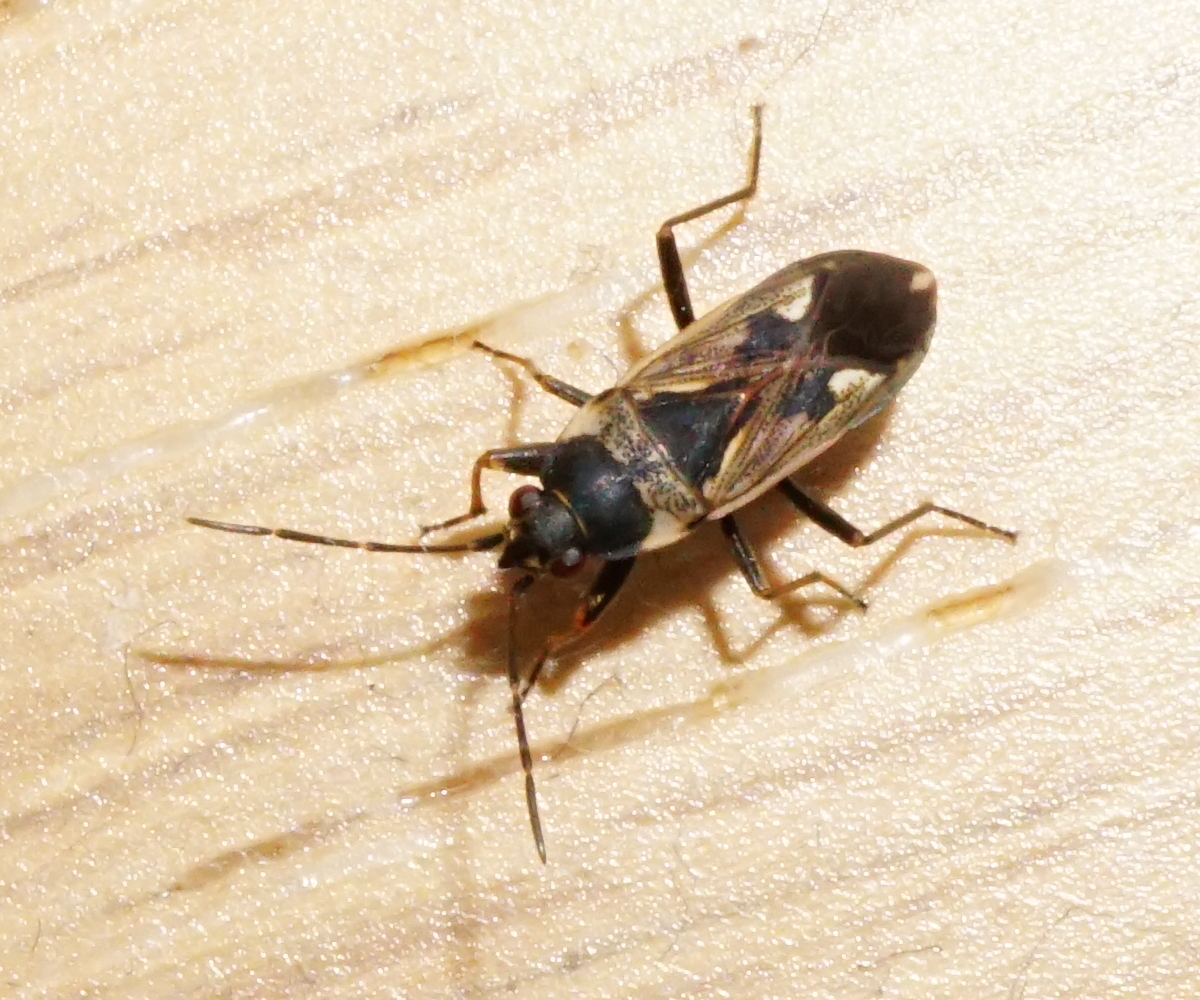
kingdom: Animalia
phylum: Arthropoda
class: Insecta
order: Hemiptera
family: Rhyparochromidae
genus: Rhyparochromus
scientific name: Rhyparochromus vulgaris
